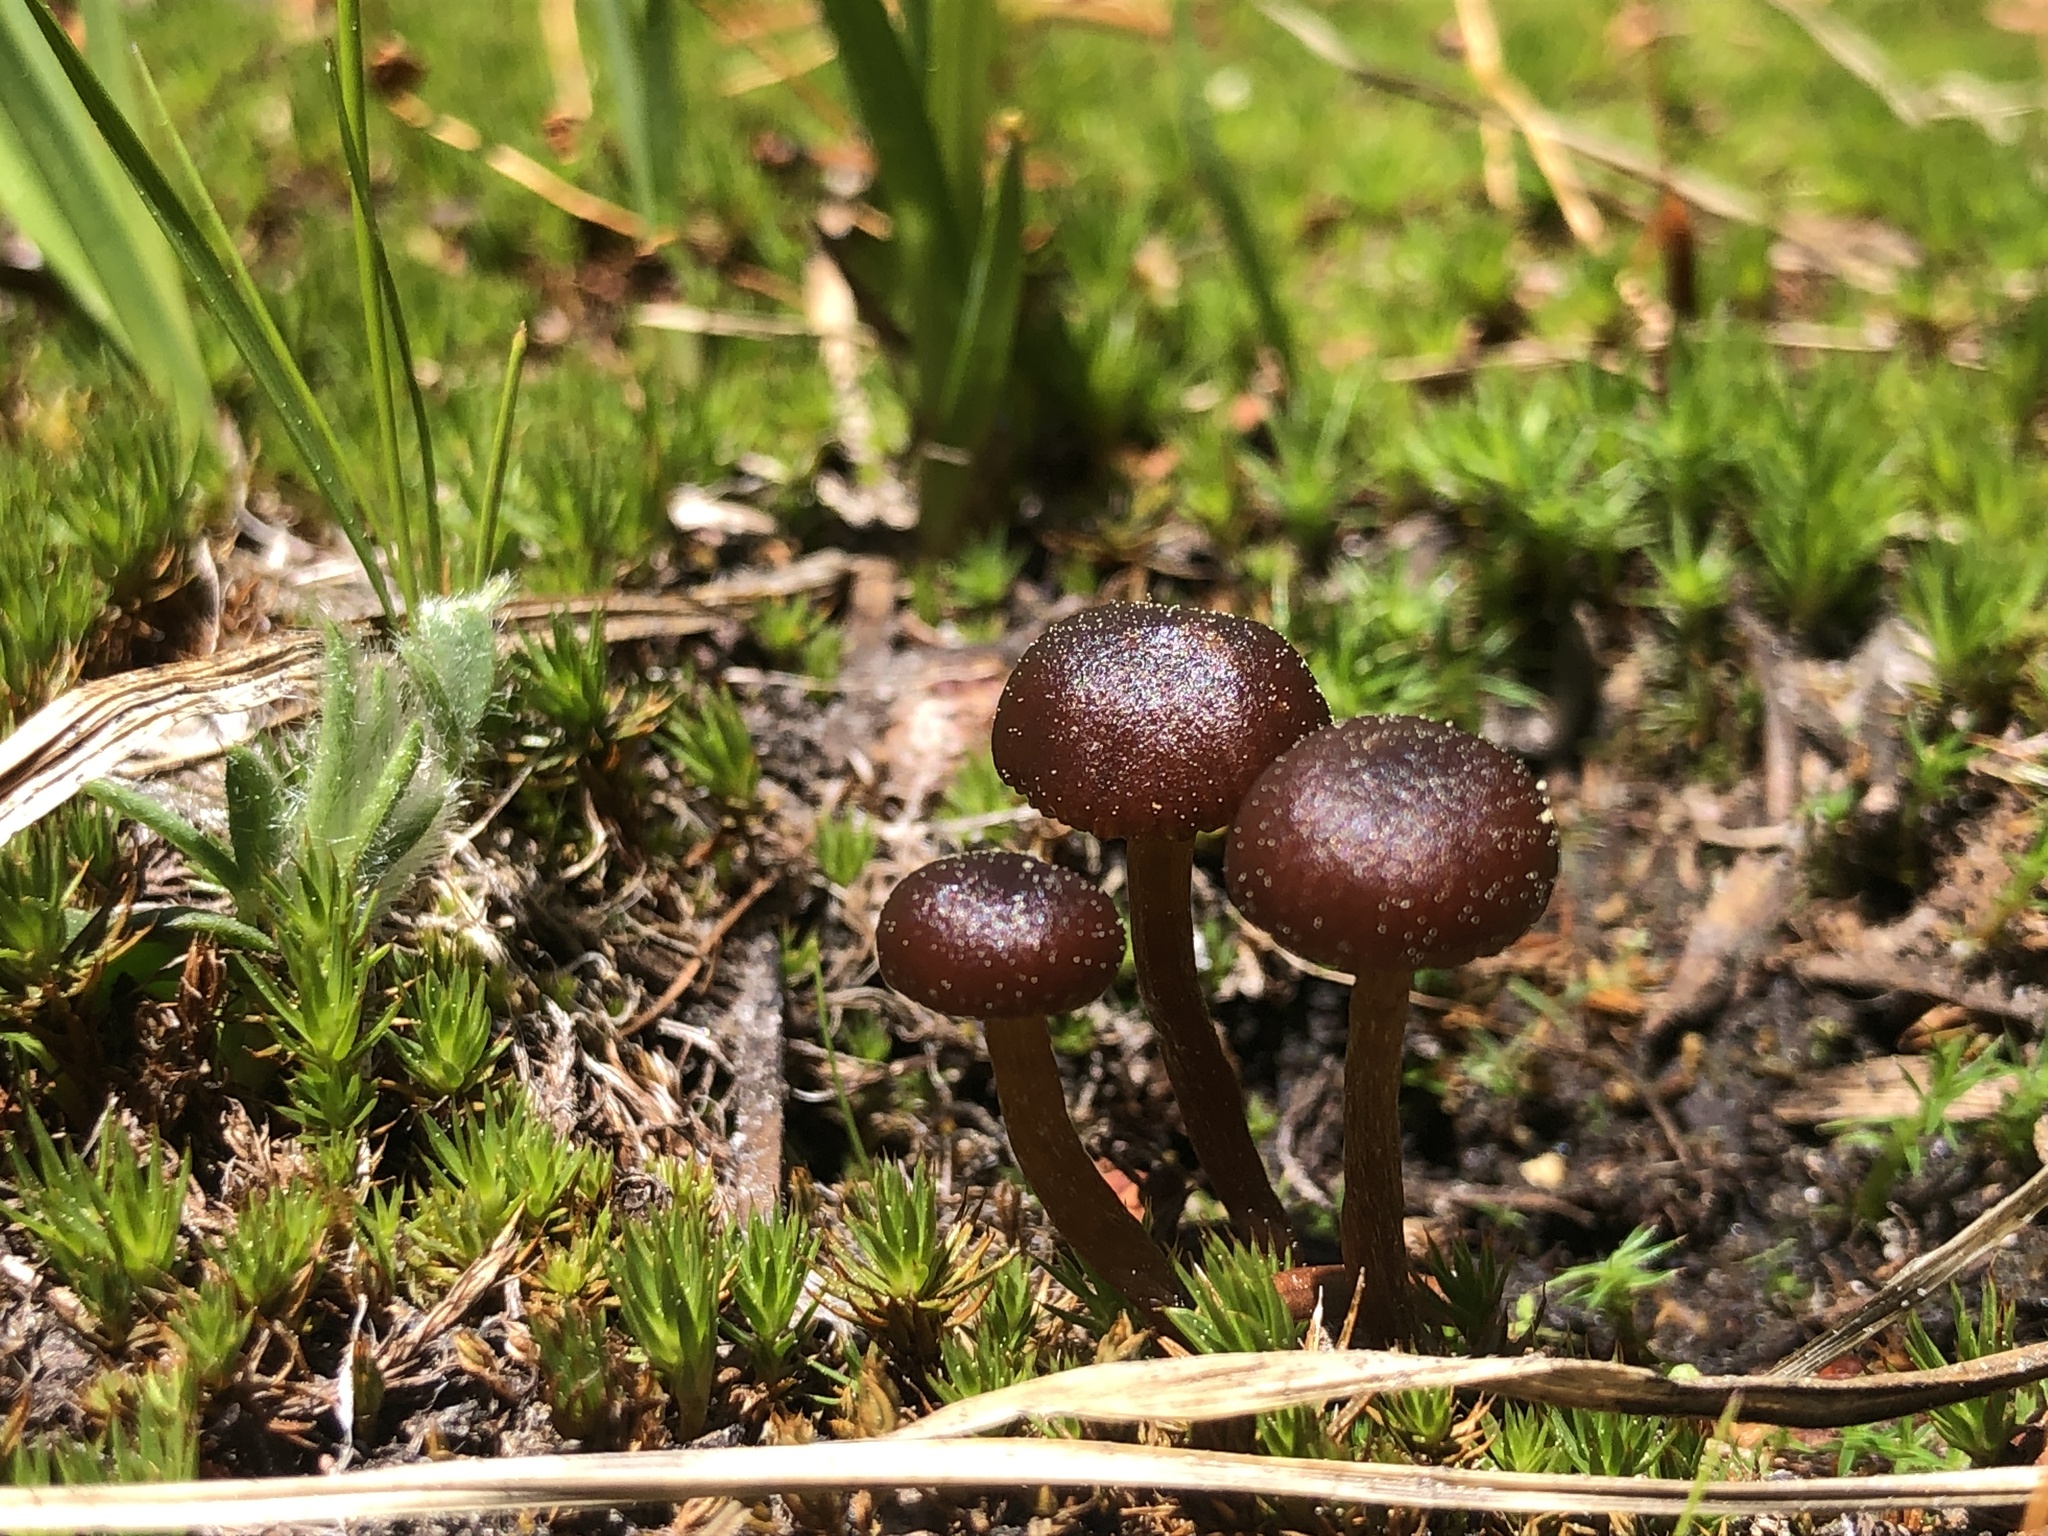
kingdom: Fungi
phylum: Basidiomycota
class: Agaricomycetes
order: Agaricales
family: Strophariaceae
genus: Deconica
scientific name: Deconica montana
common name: Mountain moss deconica
